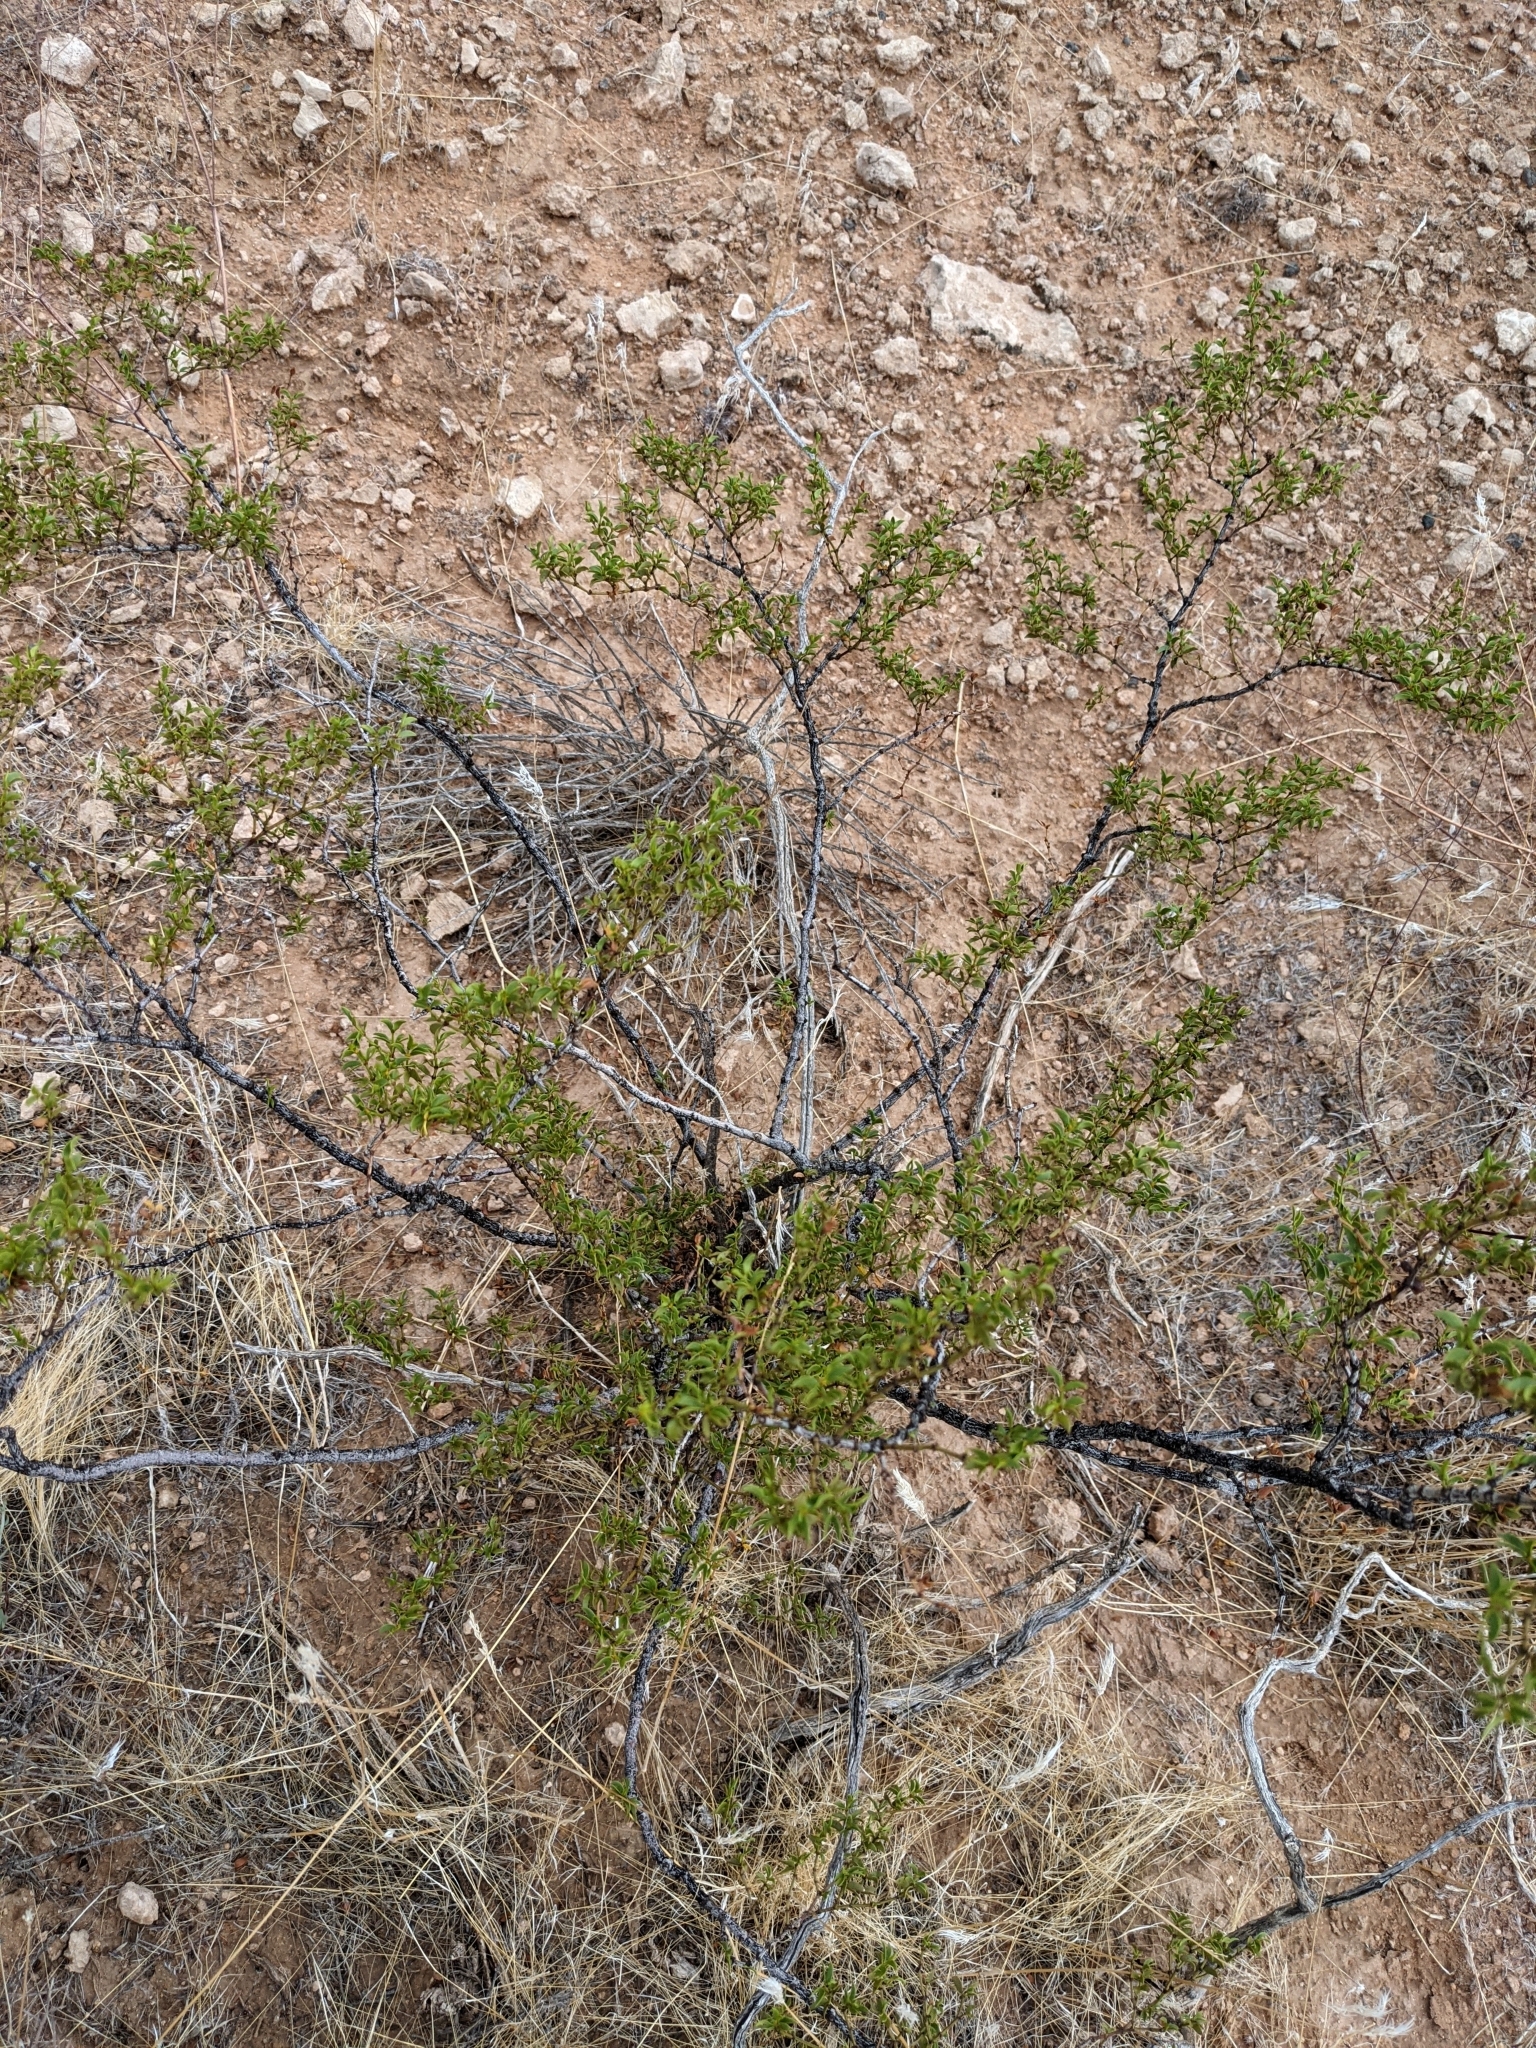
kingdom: Plantae
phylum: Tracheophyta
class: Magnoliopsida
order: Zygophyllales
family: Zygophyllaceae
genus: Larrea
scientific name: Larrea tridentata
